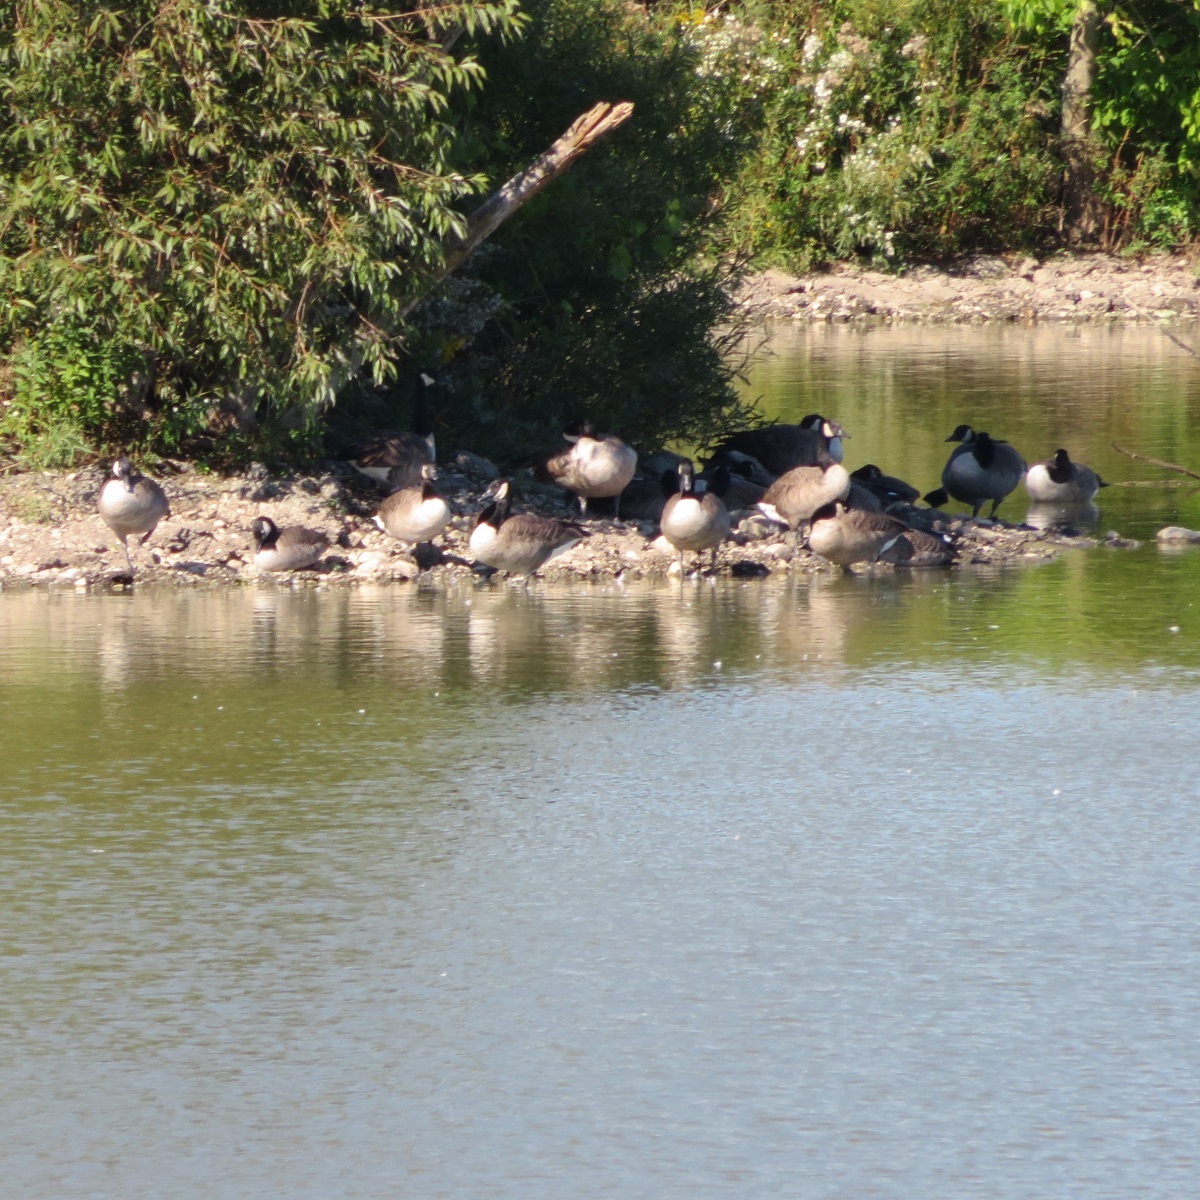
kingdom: Animalia
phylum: Chordata
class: Aves
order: Anseriformes
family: Anatidae
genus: Branta
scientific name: Branta canadensis
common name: Canada goose
